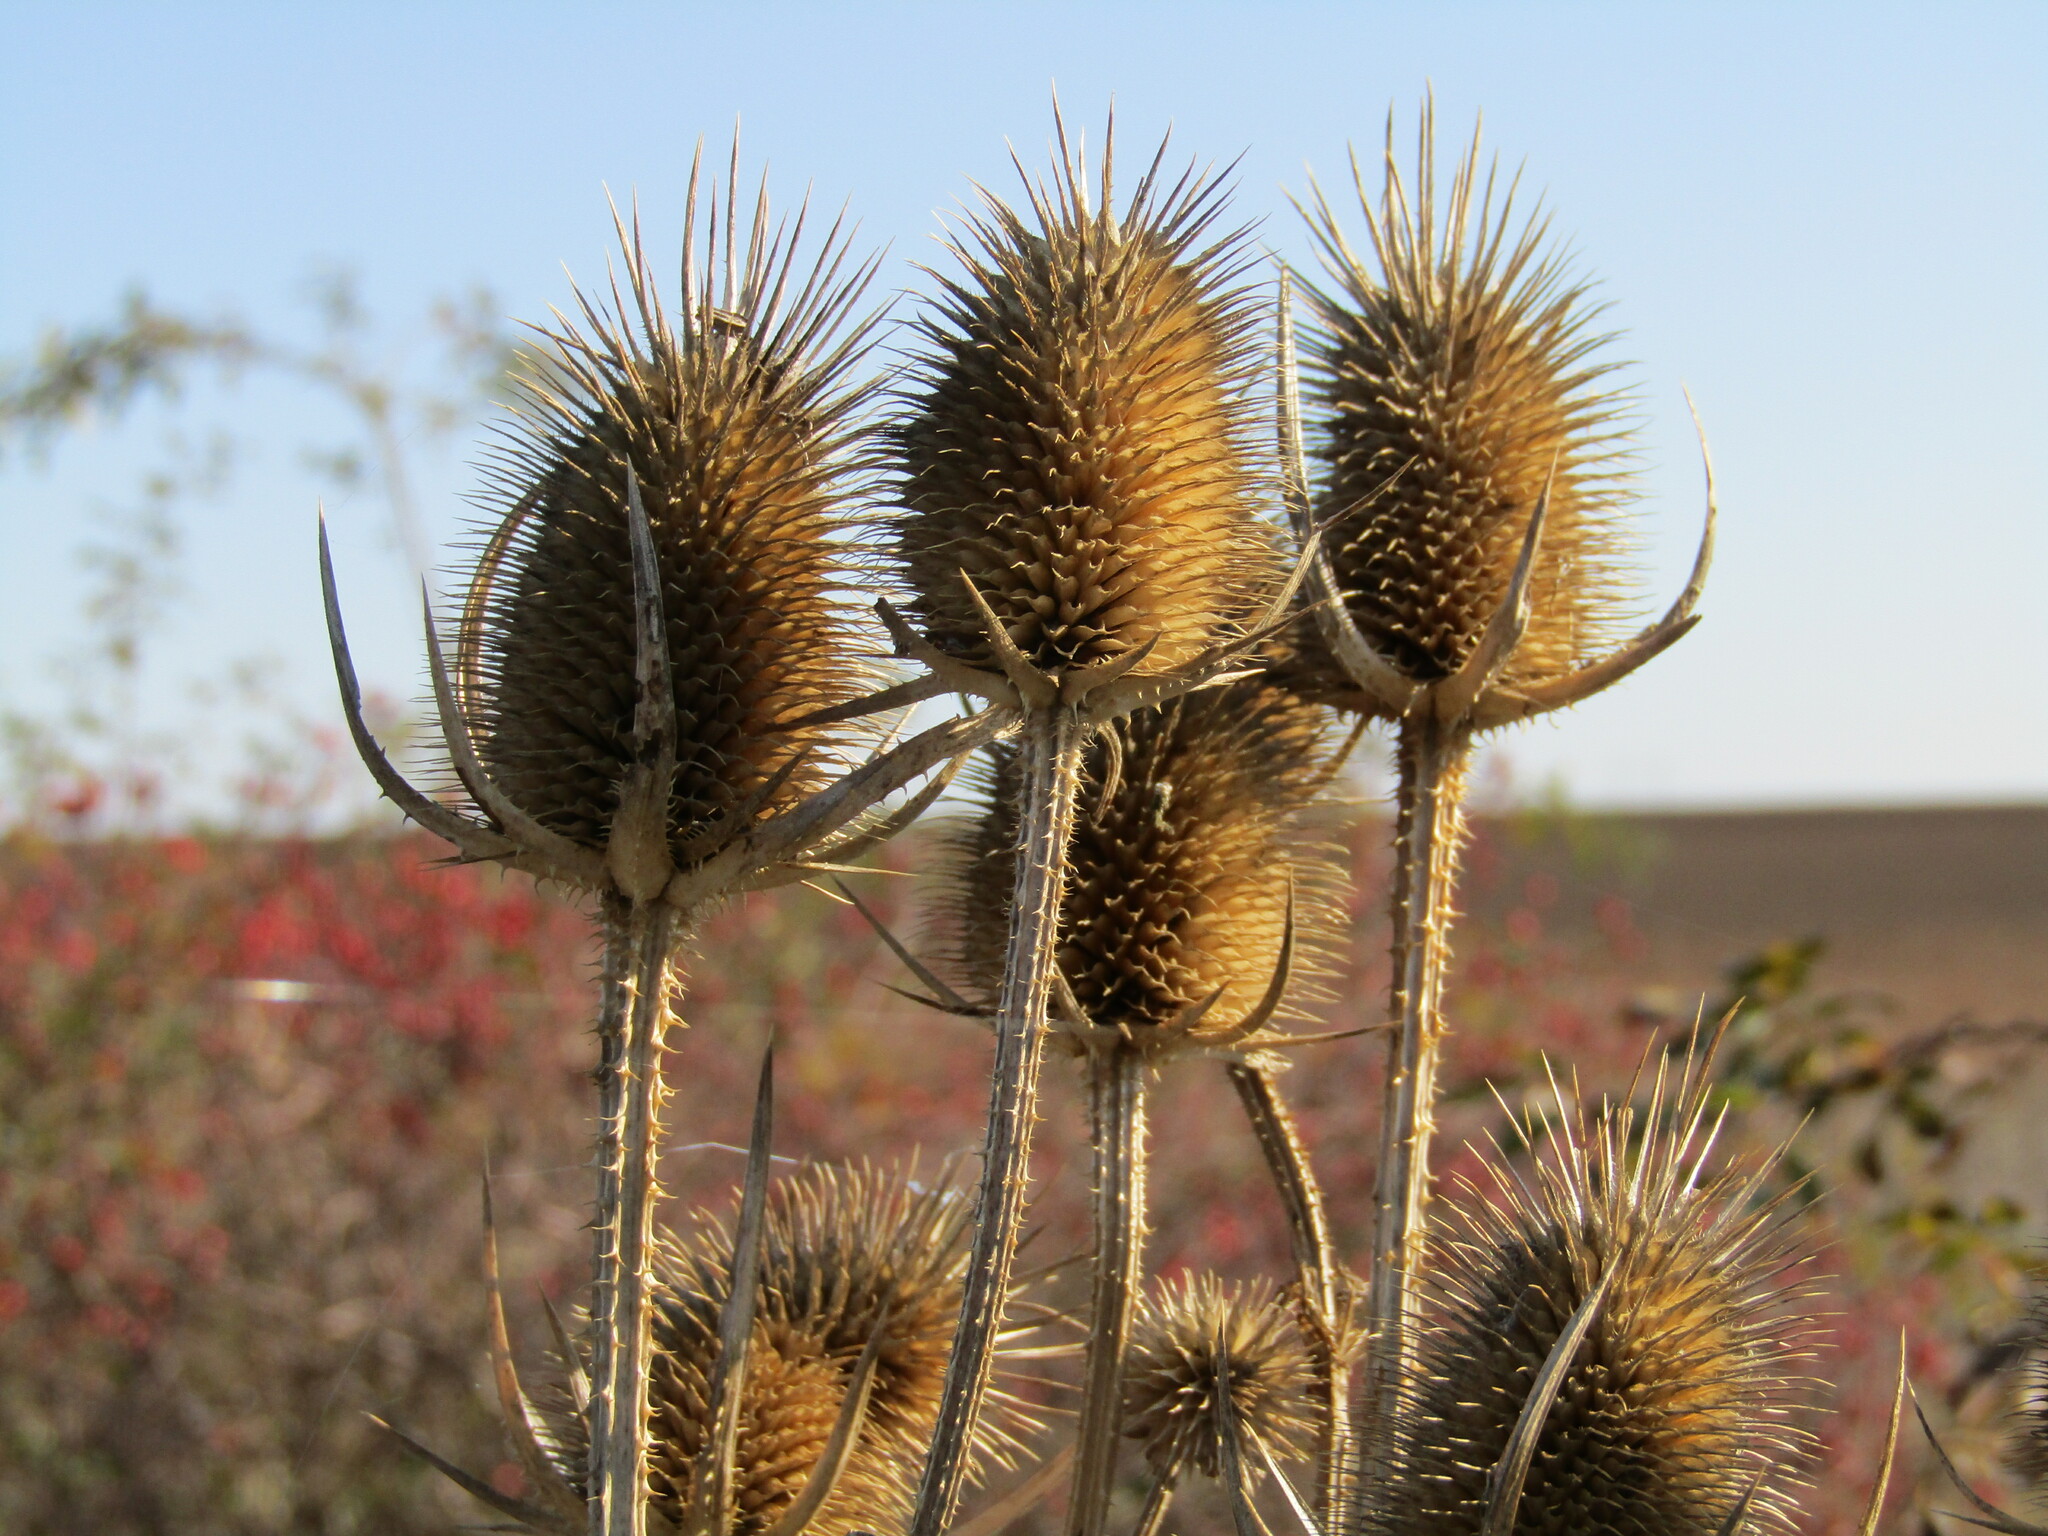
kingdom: Plantae
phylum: Tracheophyta
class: Magnoliopsida
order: Dipsacales
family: Caprifoliaceae
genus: Dipsacus
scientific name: Dipsacus laciniatus
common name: Cut-leaved teasel
